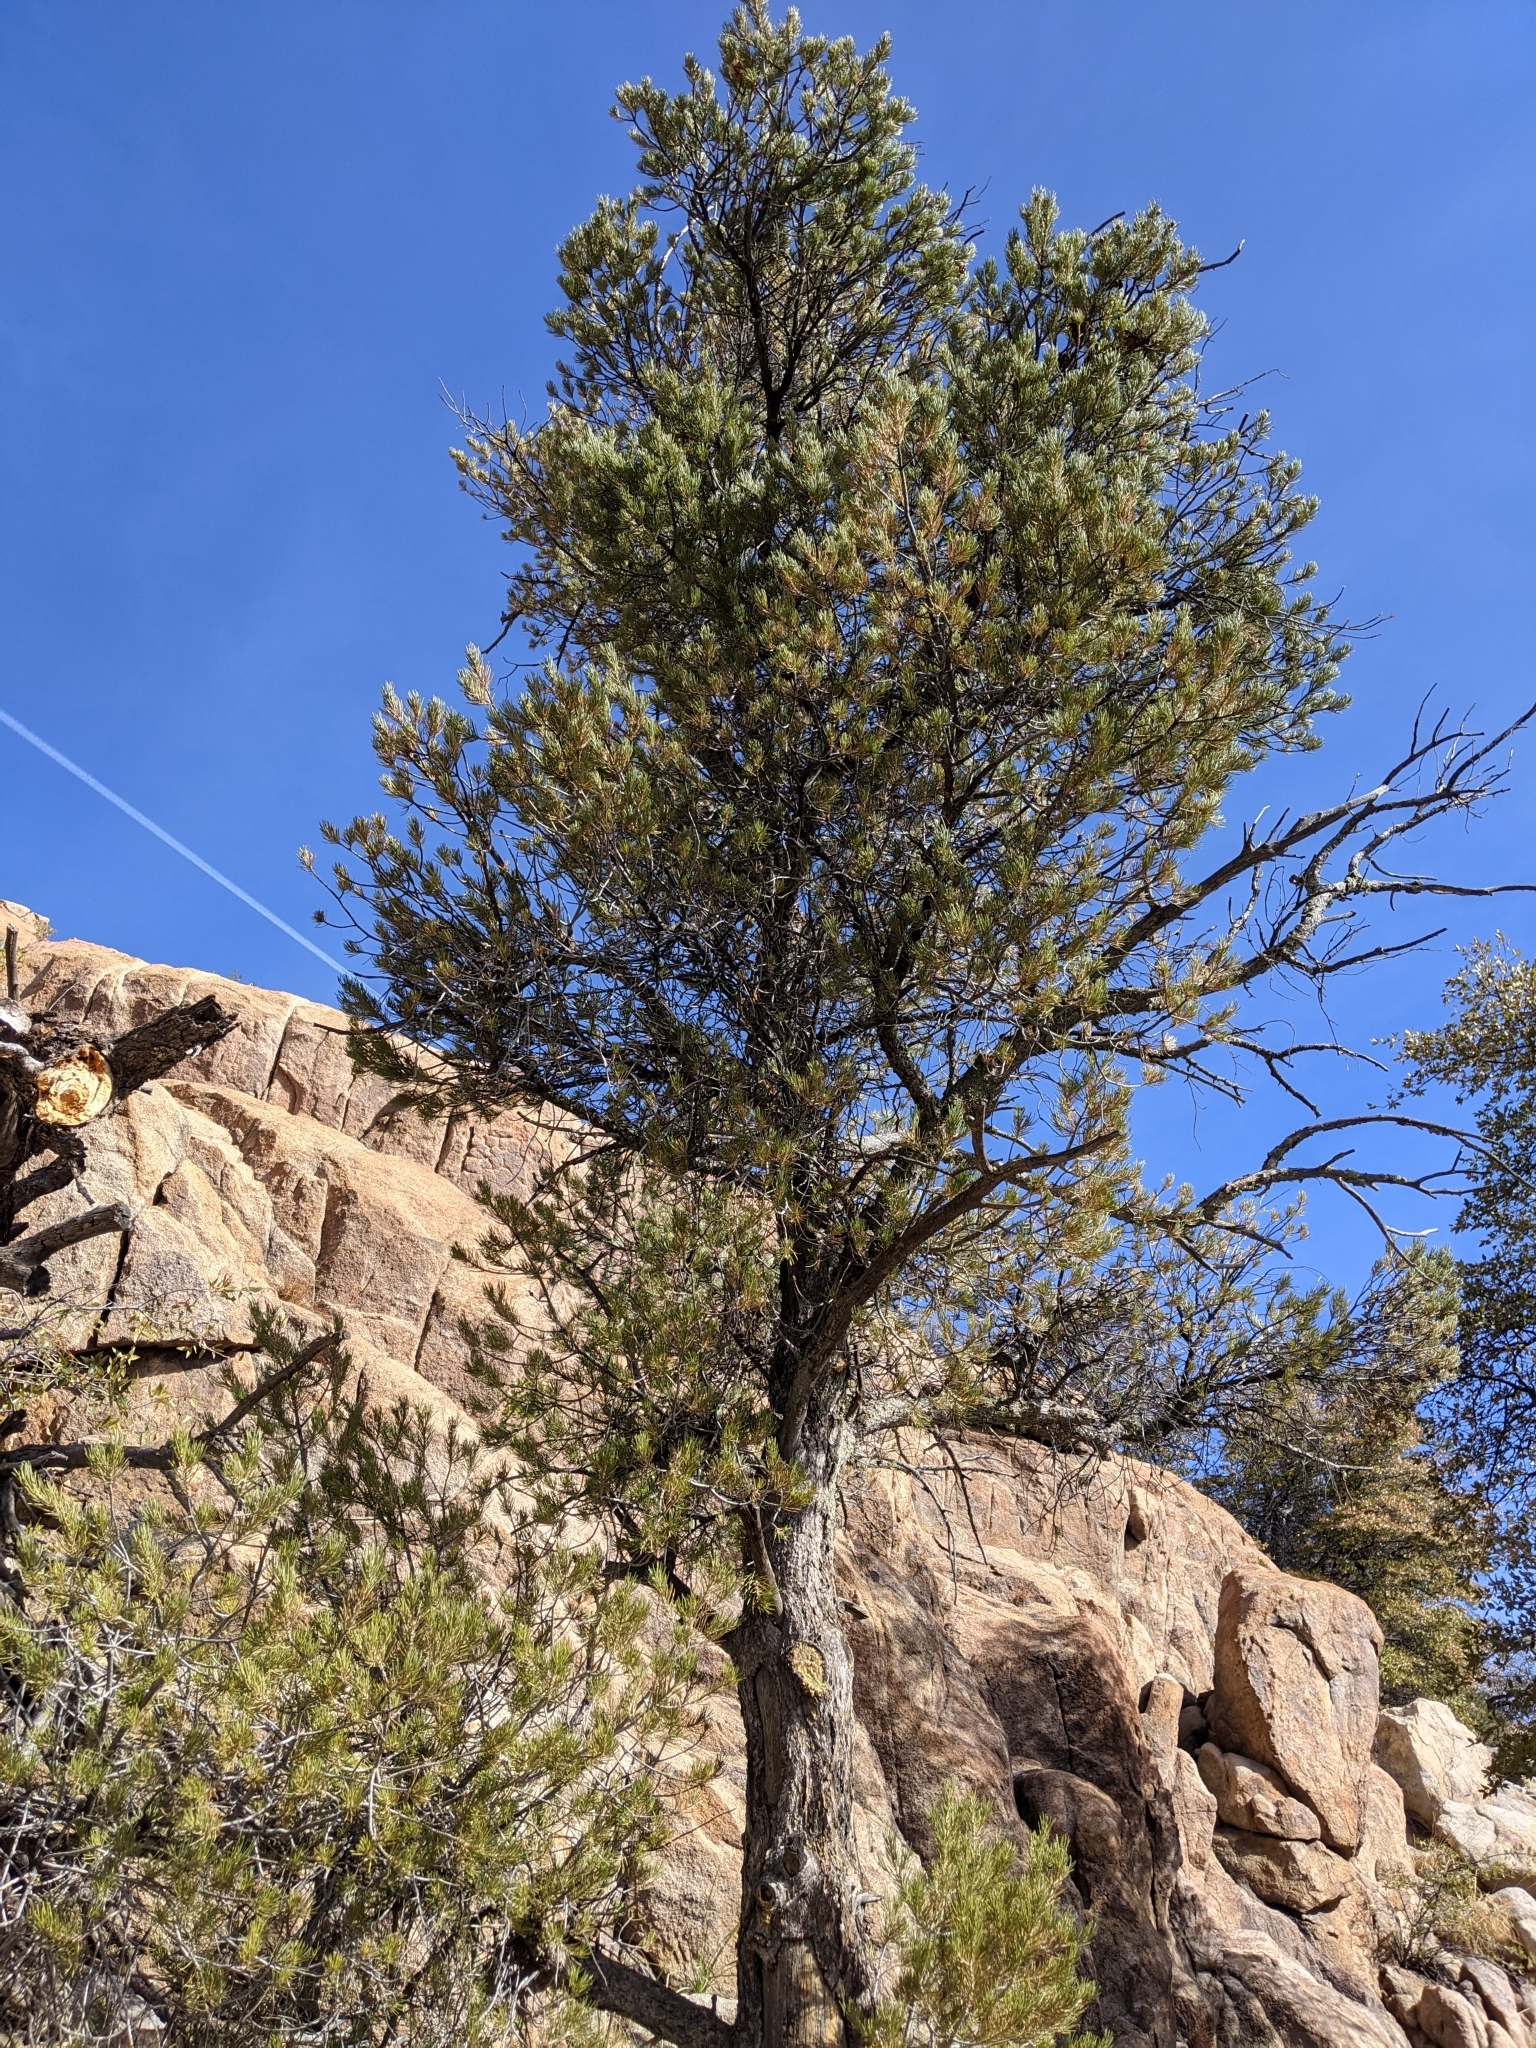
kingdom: Plantae
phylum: Tracheophyta
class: Pinopsida
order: Pinales
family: Pinaceae
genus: Pinus
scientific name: Pinus edulis
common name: Colorado pinyon
